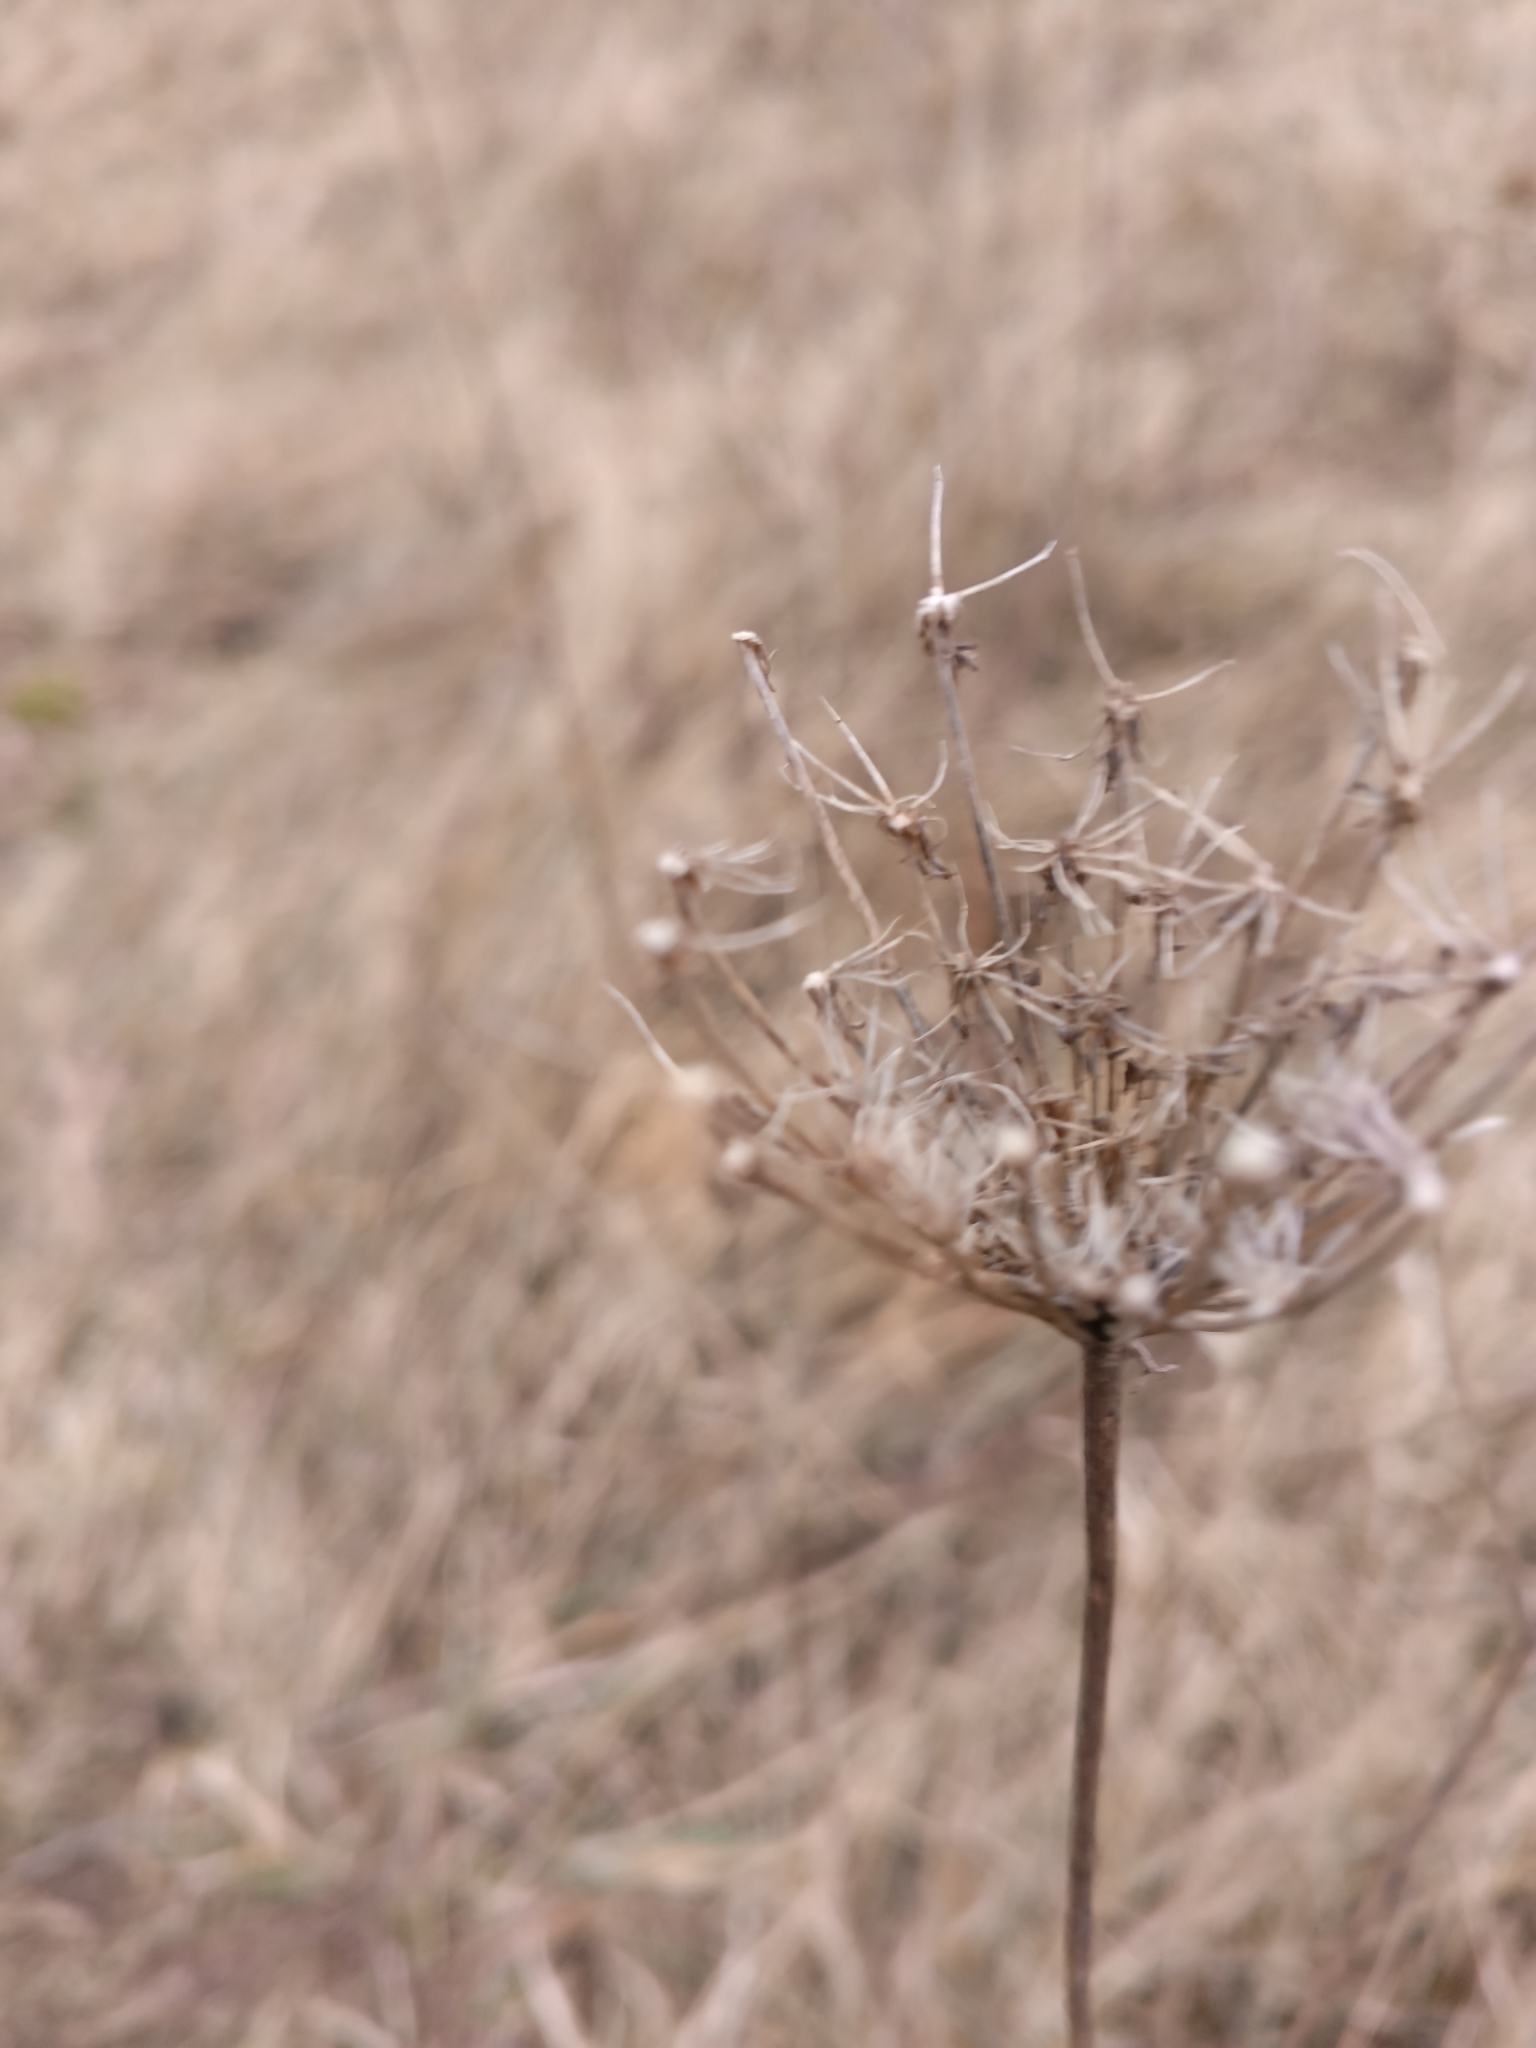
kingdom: Plantae
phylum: Tracheophyta
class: Magnoliopsida
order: Apiales
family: Apiaceae
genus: Daucus
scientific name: Daucus carota
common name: Wild carrot
